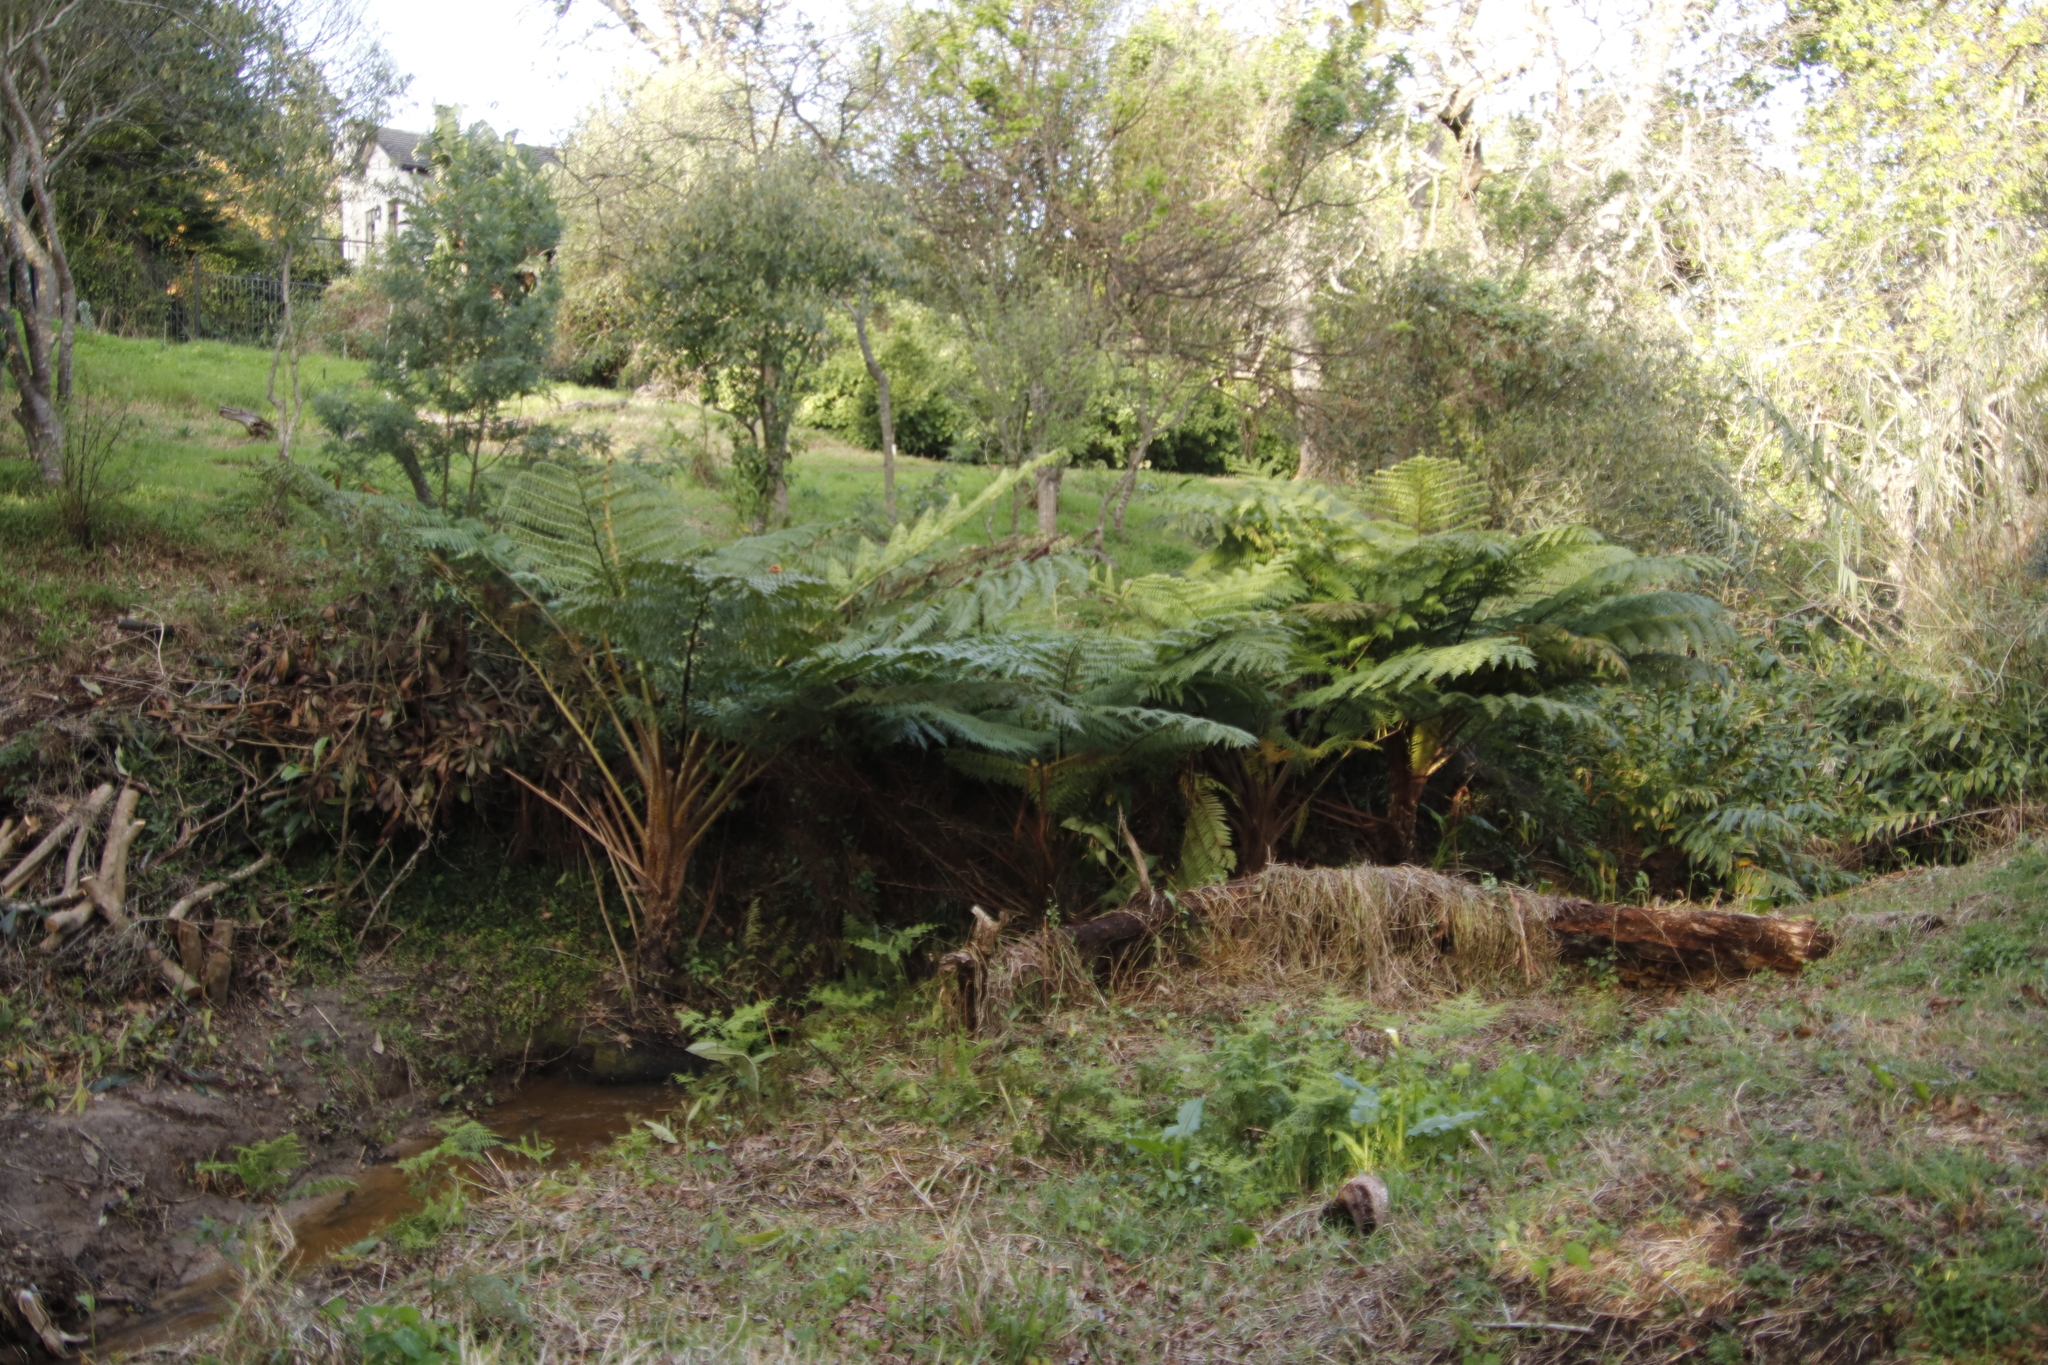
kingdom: Plantae
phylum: Tracheophyta
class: Polypodiopsida
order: Cyatheales
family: Cyatheaceae
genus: Sphaeropteris
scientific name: Sphaeropteris cooperi
